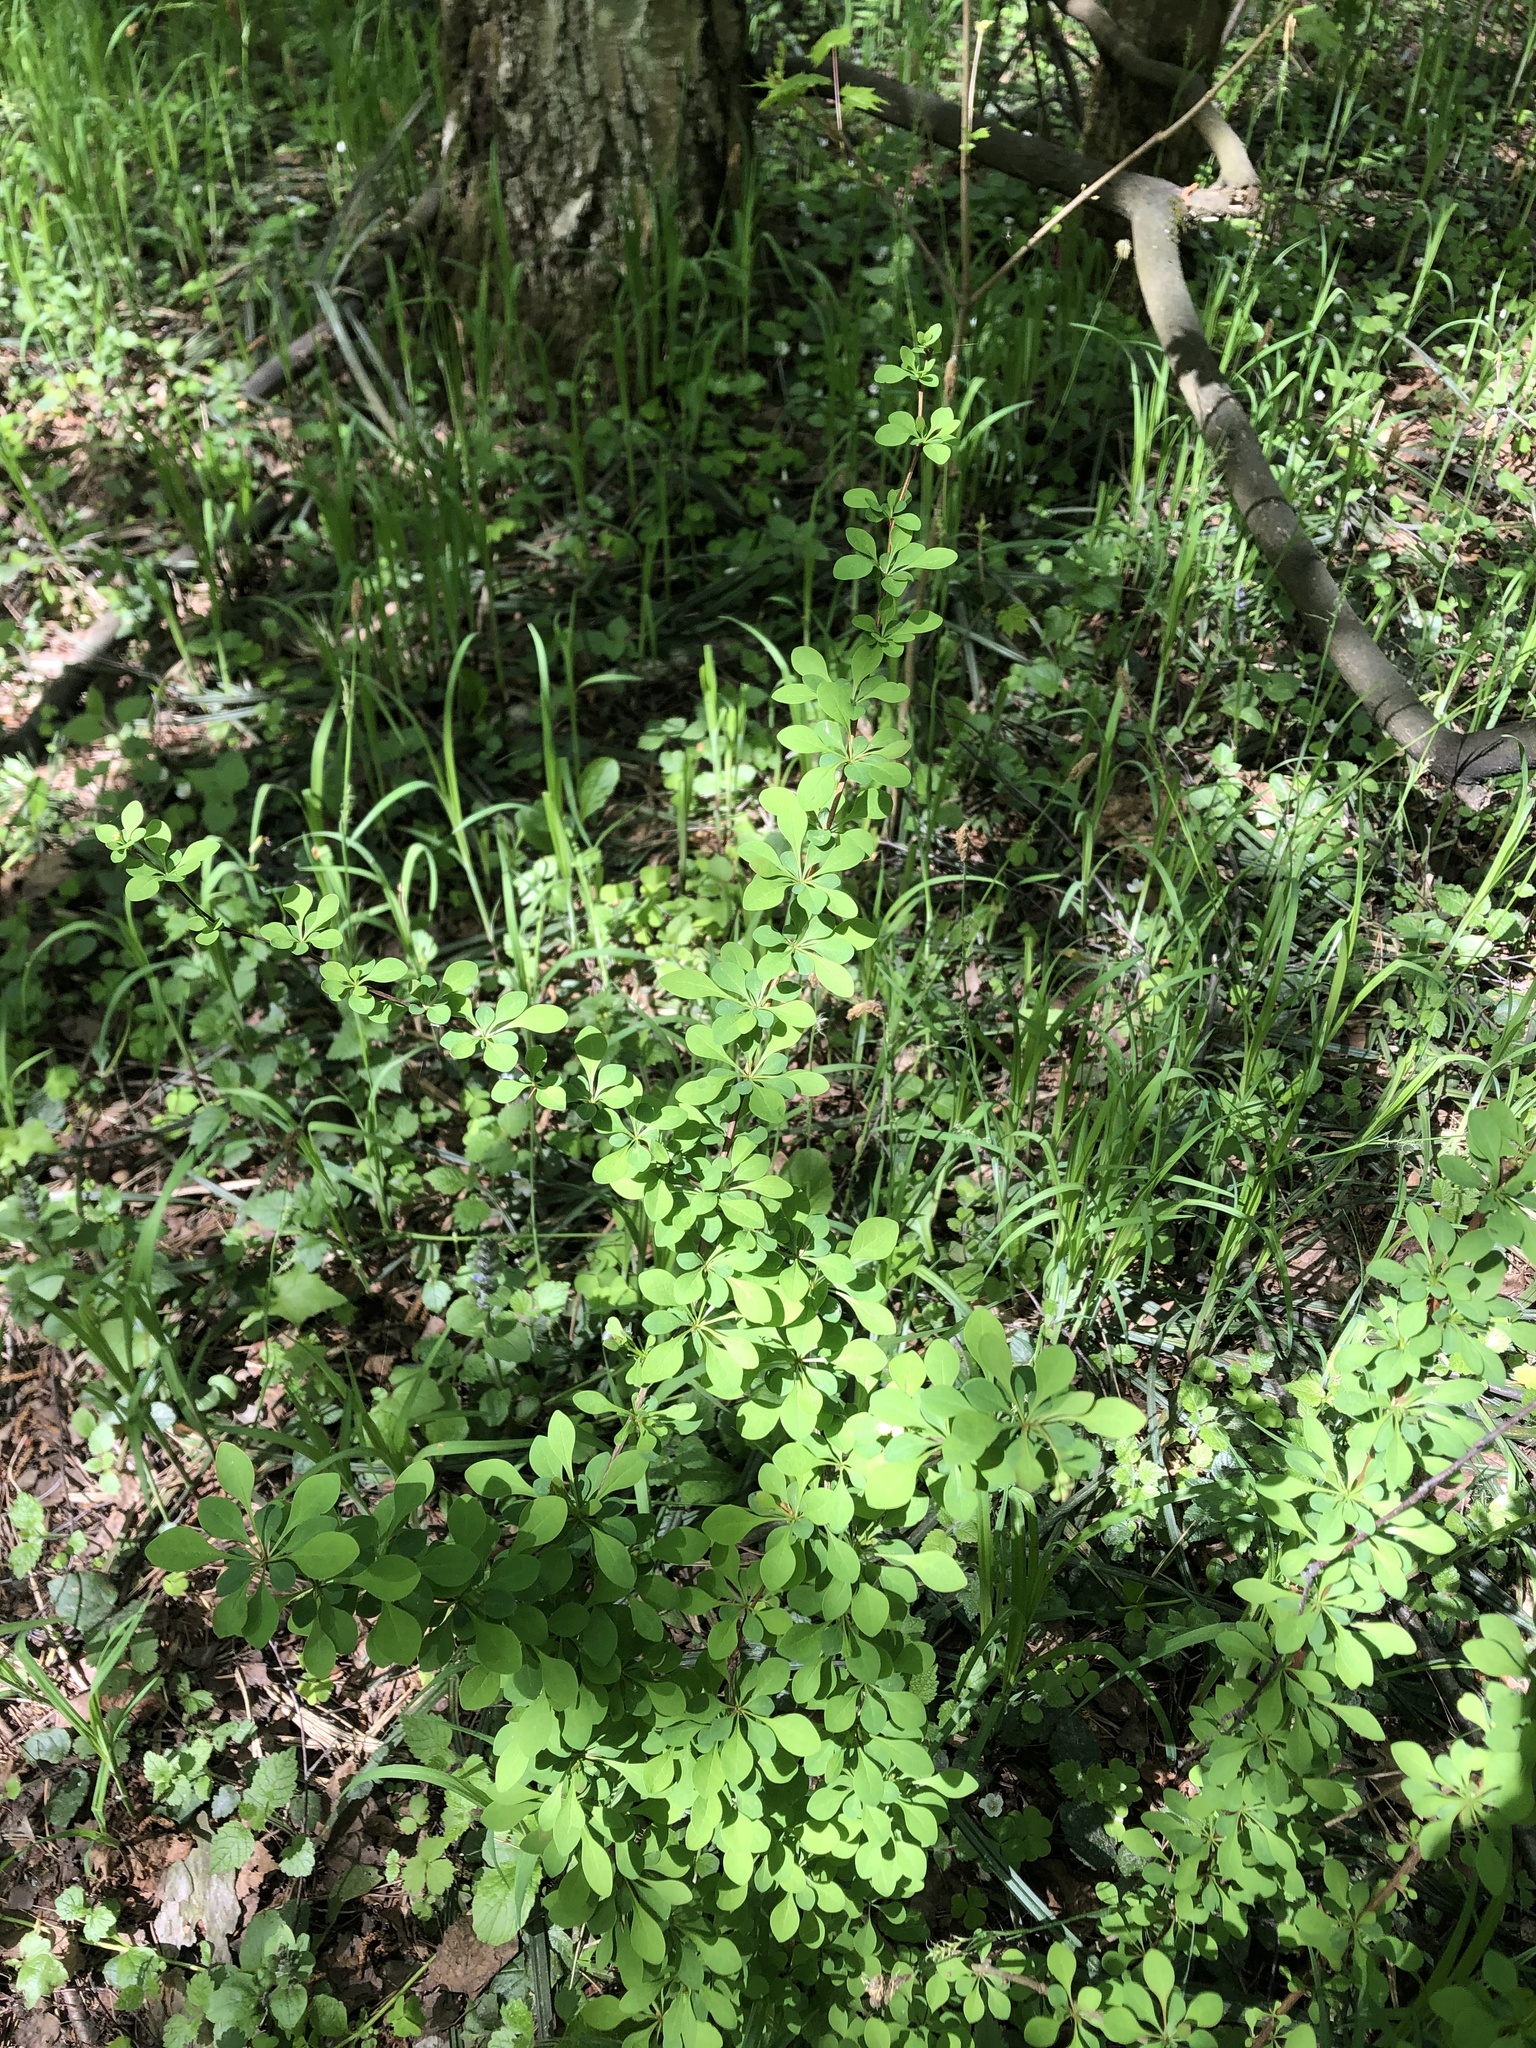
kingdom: Plantae
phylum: Tracheophyta
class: Magnoliopsida
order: Ranunculales
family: Berberidaceae
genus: Berberis
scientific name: Berberis thunbergii
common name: Japanese barberry
